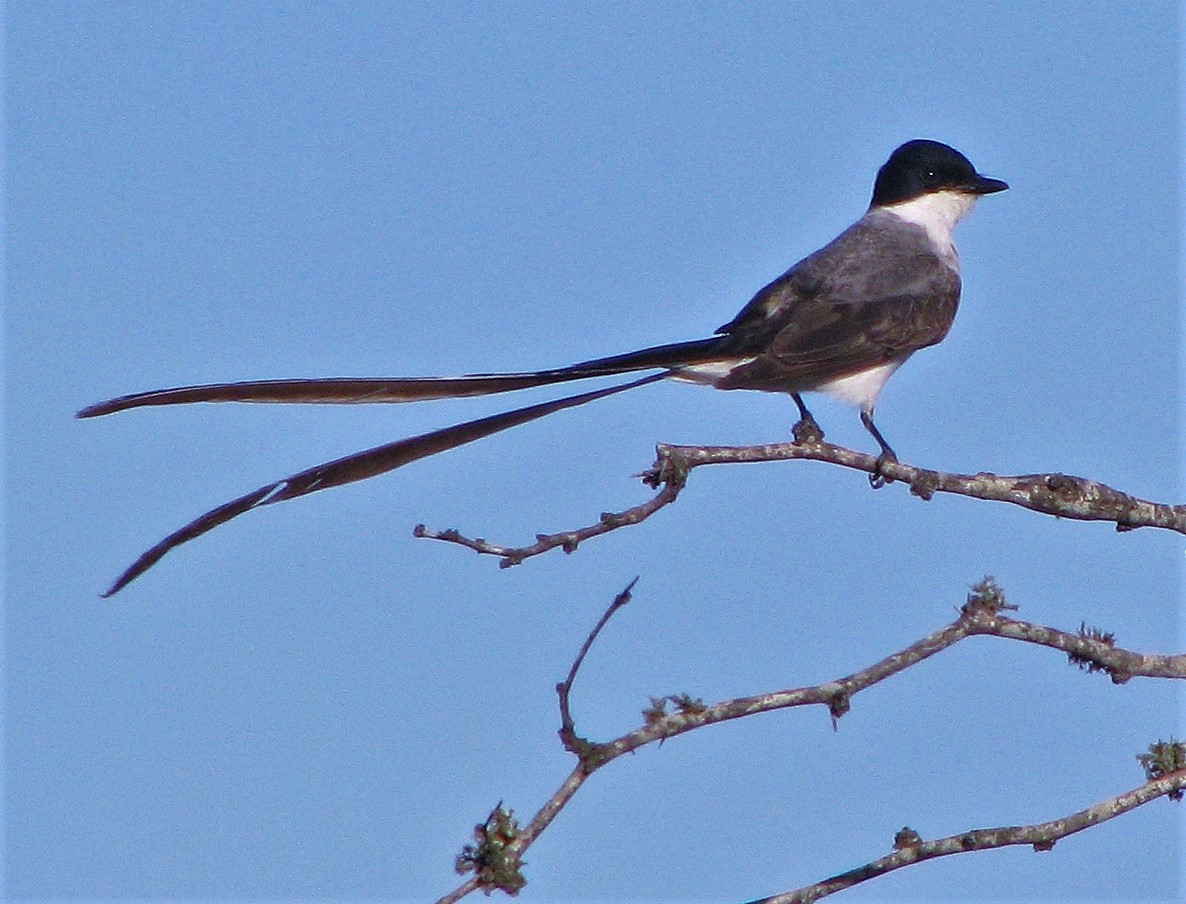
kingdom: Animalia
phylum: Chordata
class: Aves
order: Passeriformes
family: Tyrannidae
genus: Tyrannus
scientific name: Tyrannus savana
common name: Fork-tailed flycatcher
